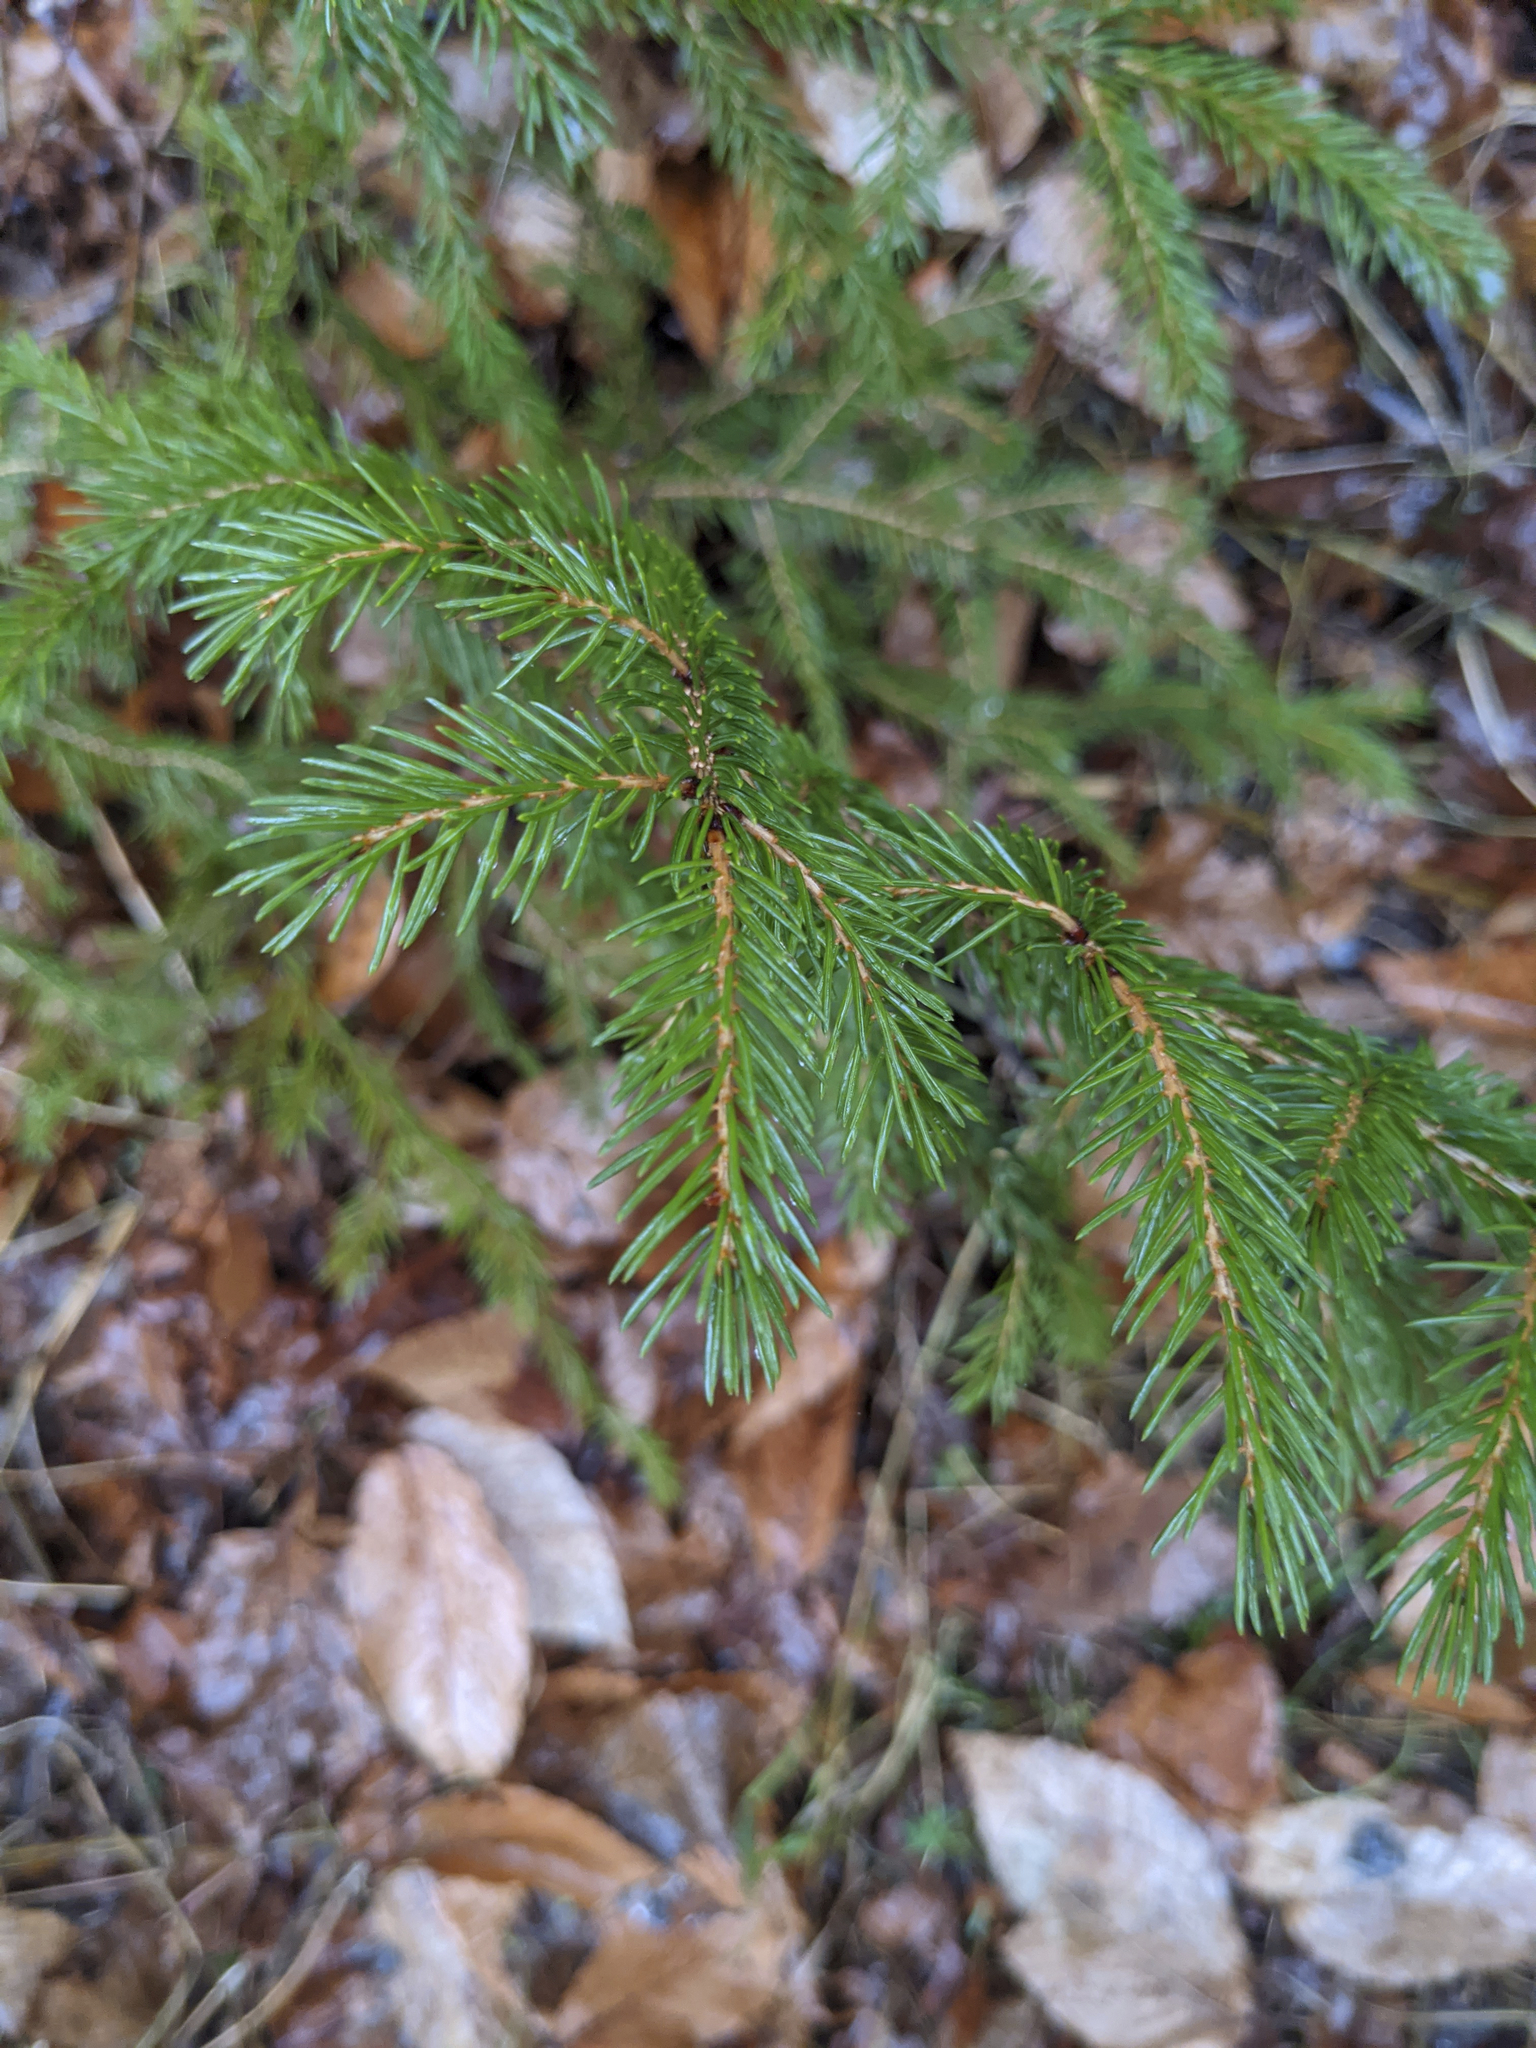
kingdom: Plantae
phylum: Tracheophyta
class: Pinopsida
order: Pinales
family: Pinaceae
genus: Picea
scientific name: Picea rubens
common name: Red spruce
